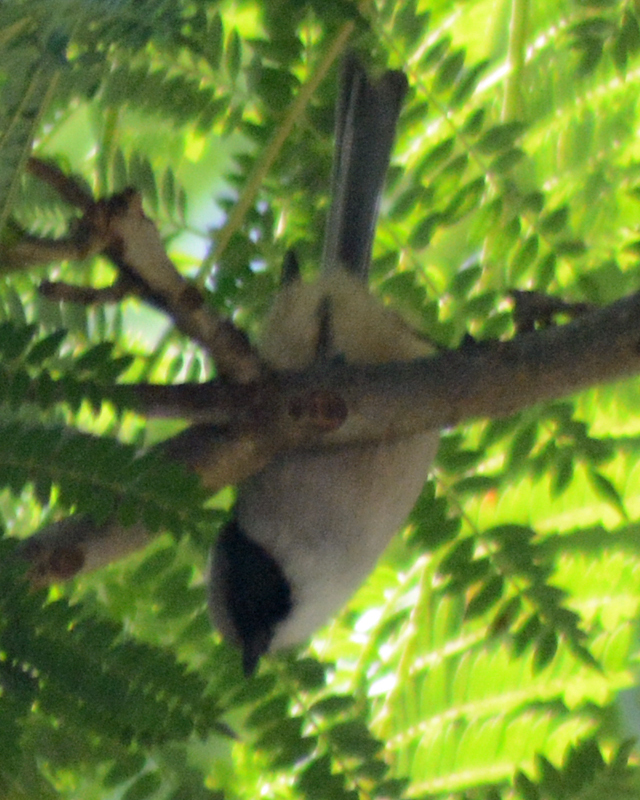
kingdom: Animalia
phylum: Chordata
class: Aves
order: Passeriformes
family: Aegithalidae
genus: Psaltriparus
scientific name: Psaltriparus minimus
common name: American bushtit
